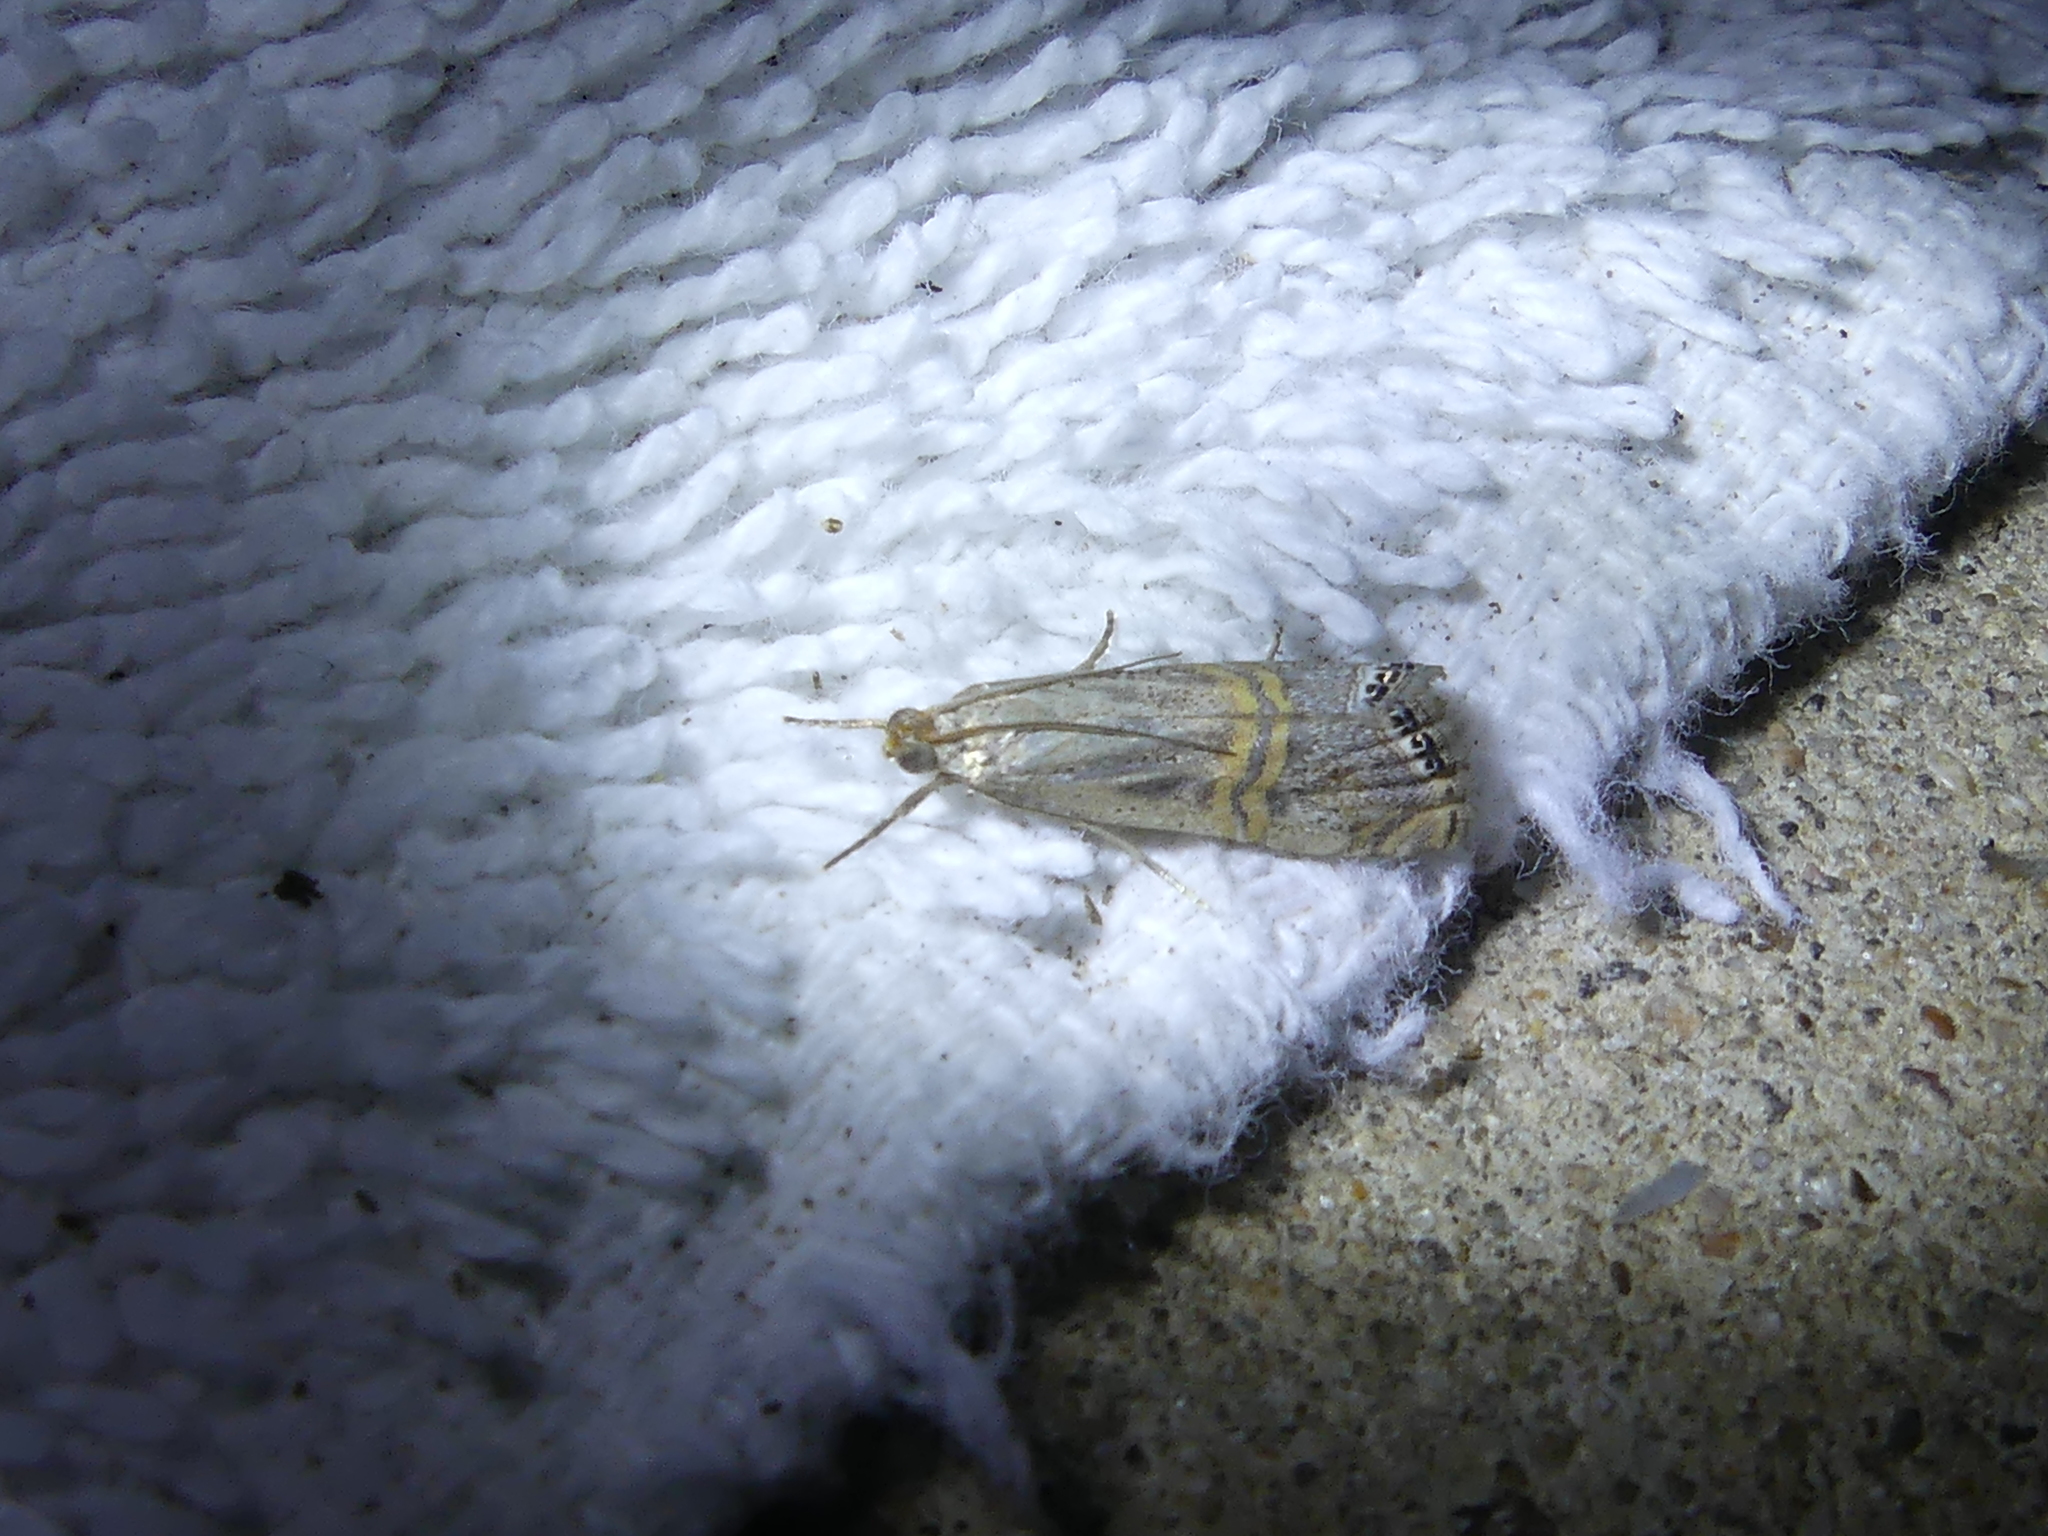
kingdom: Animalia
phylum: Arthropoda
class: Insecta
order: Lepidoptera
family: Crambidae
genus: Euchromius
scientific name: Euchromius ocellea
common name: Necklace veneer moth
